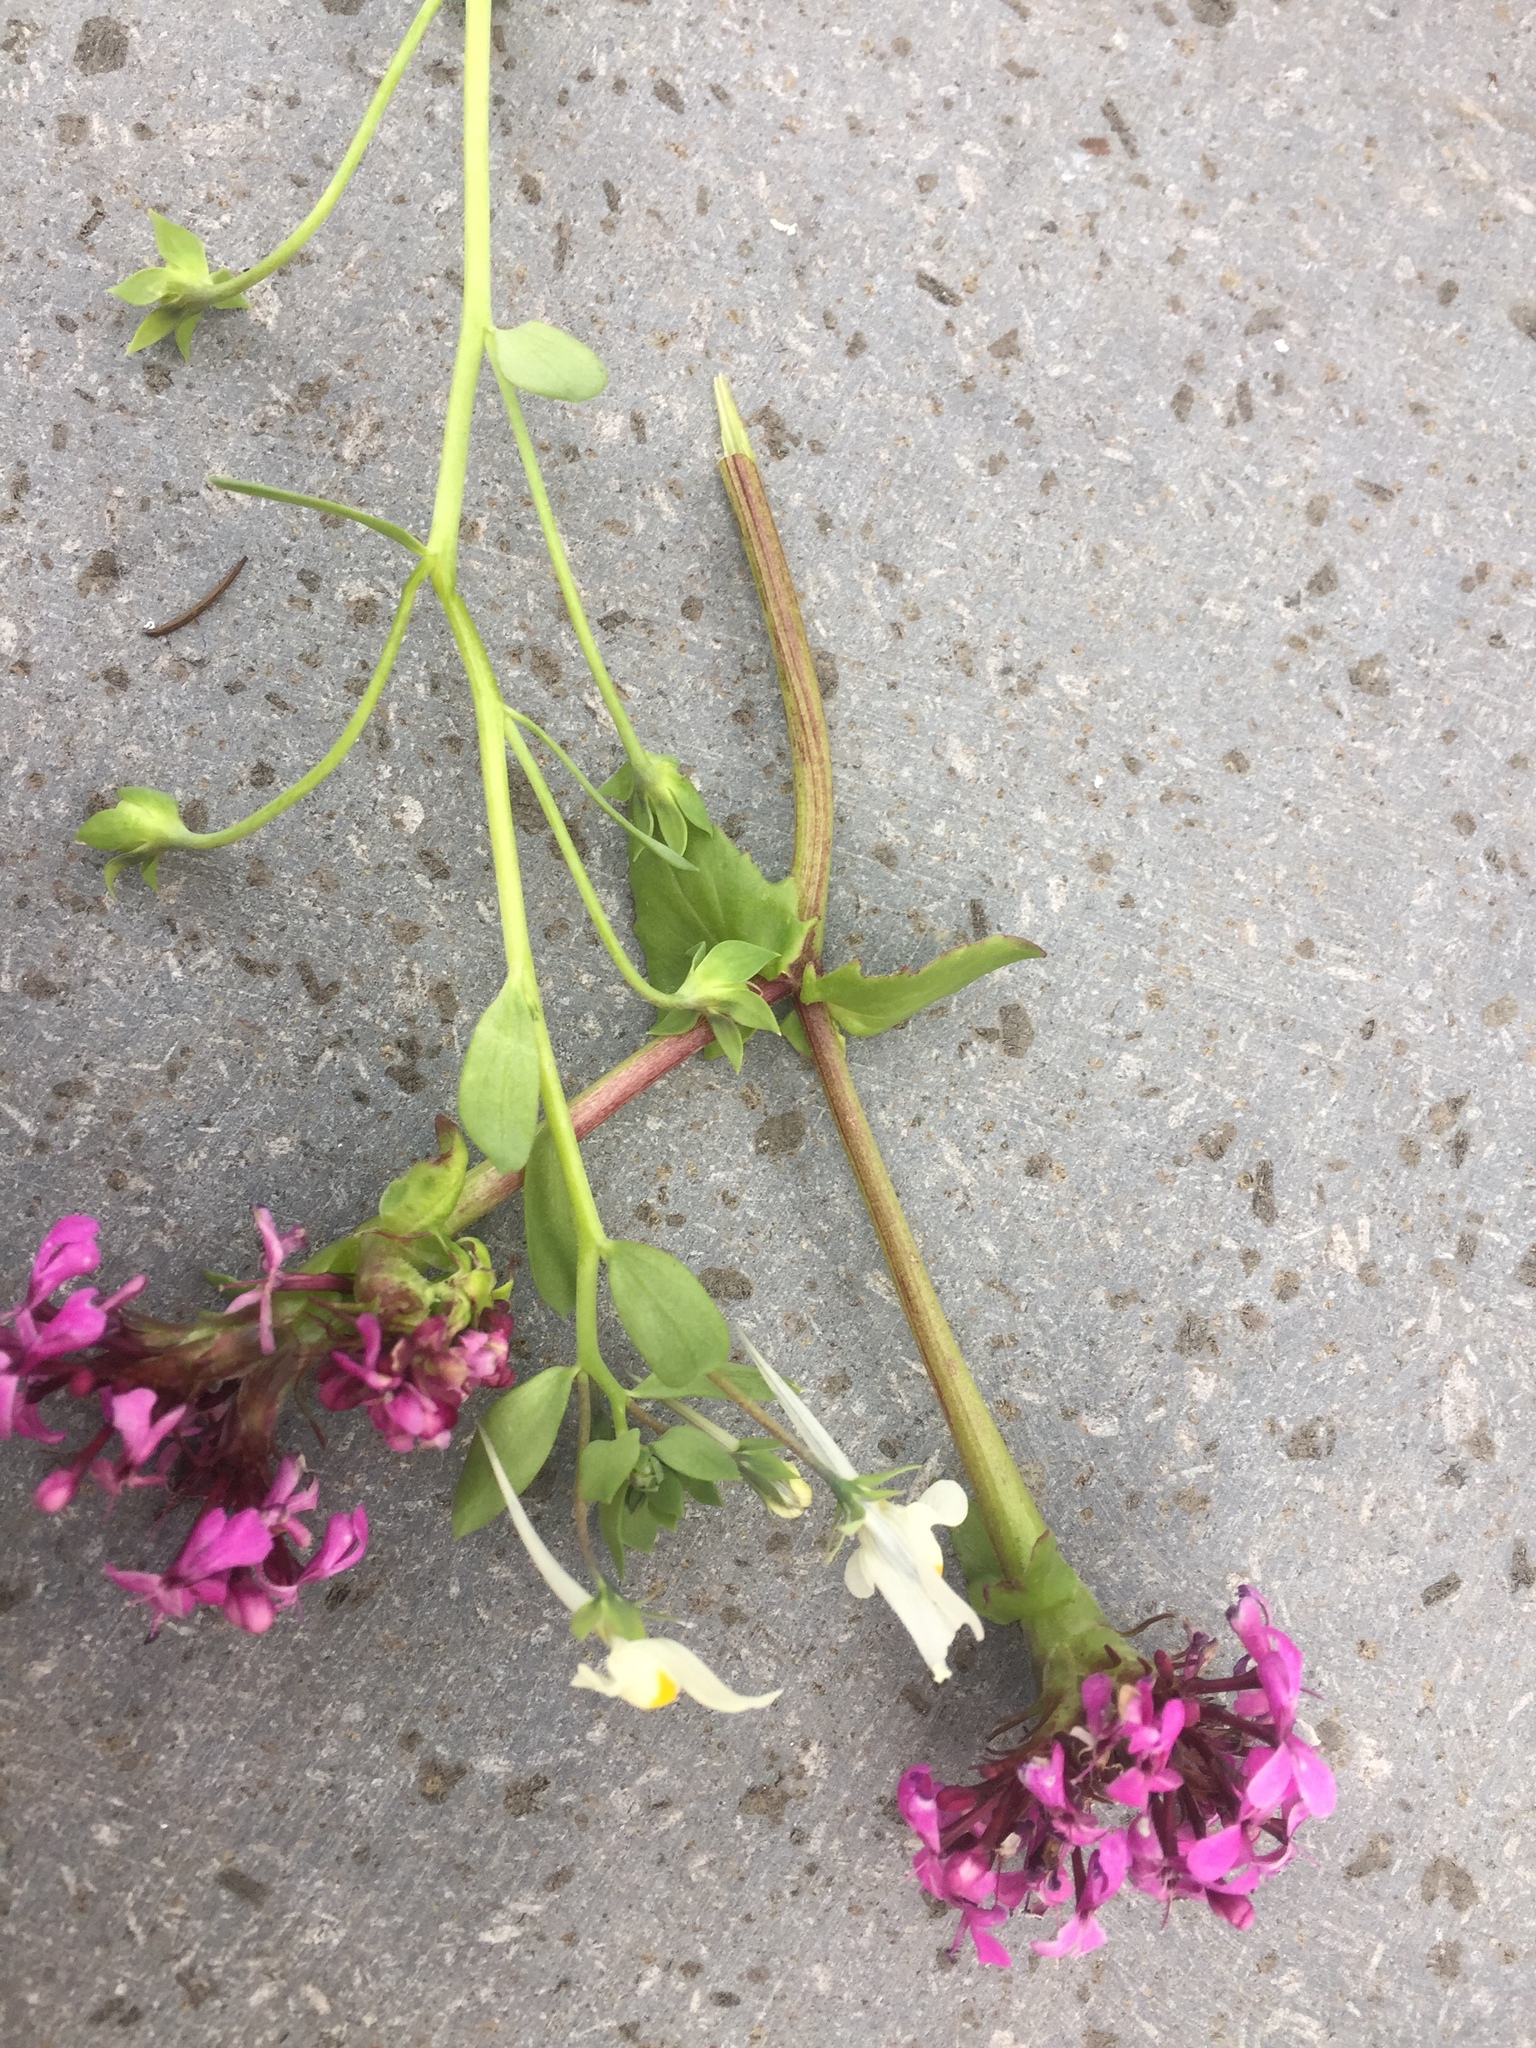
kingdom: Plantae
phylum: Tracheophyta
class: Magnoliopsida
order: Lamiales
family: Plantaginaceae
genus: Linaria
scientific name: Linaria reflexa
